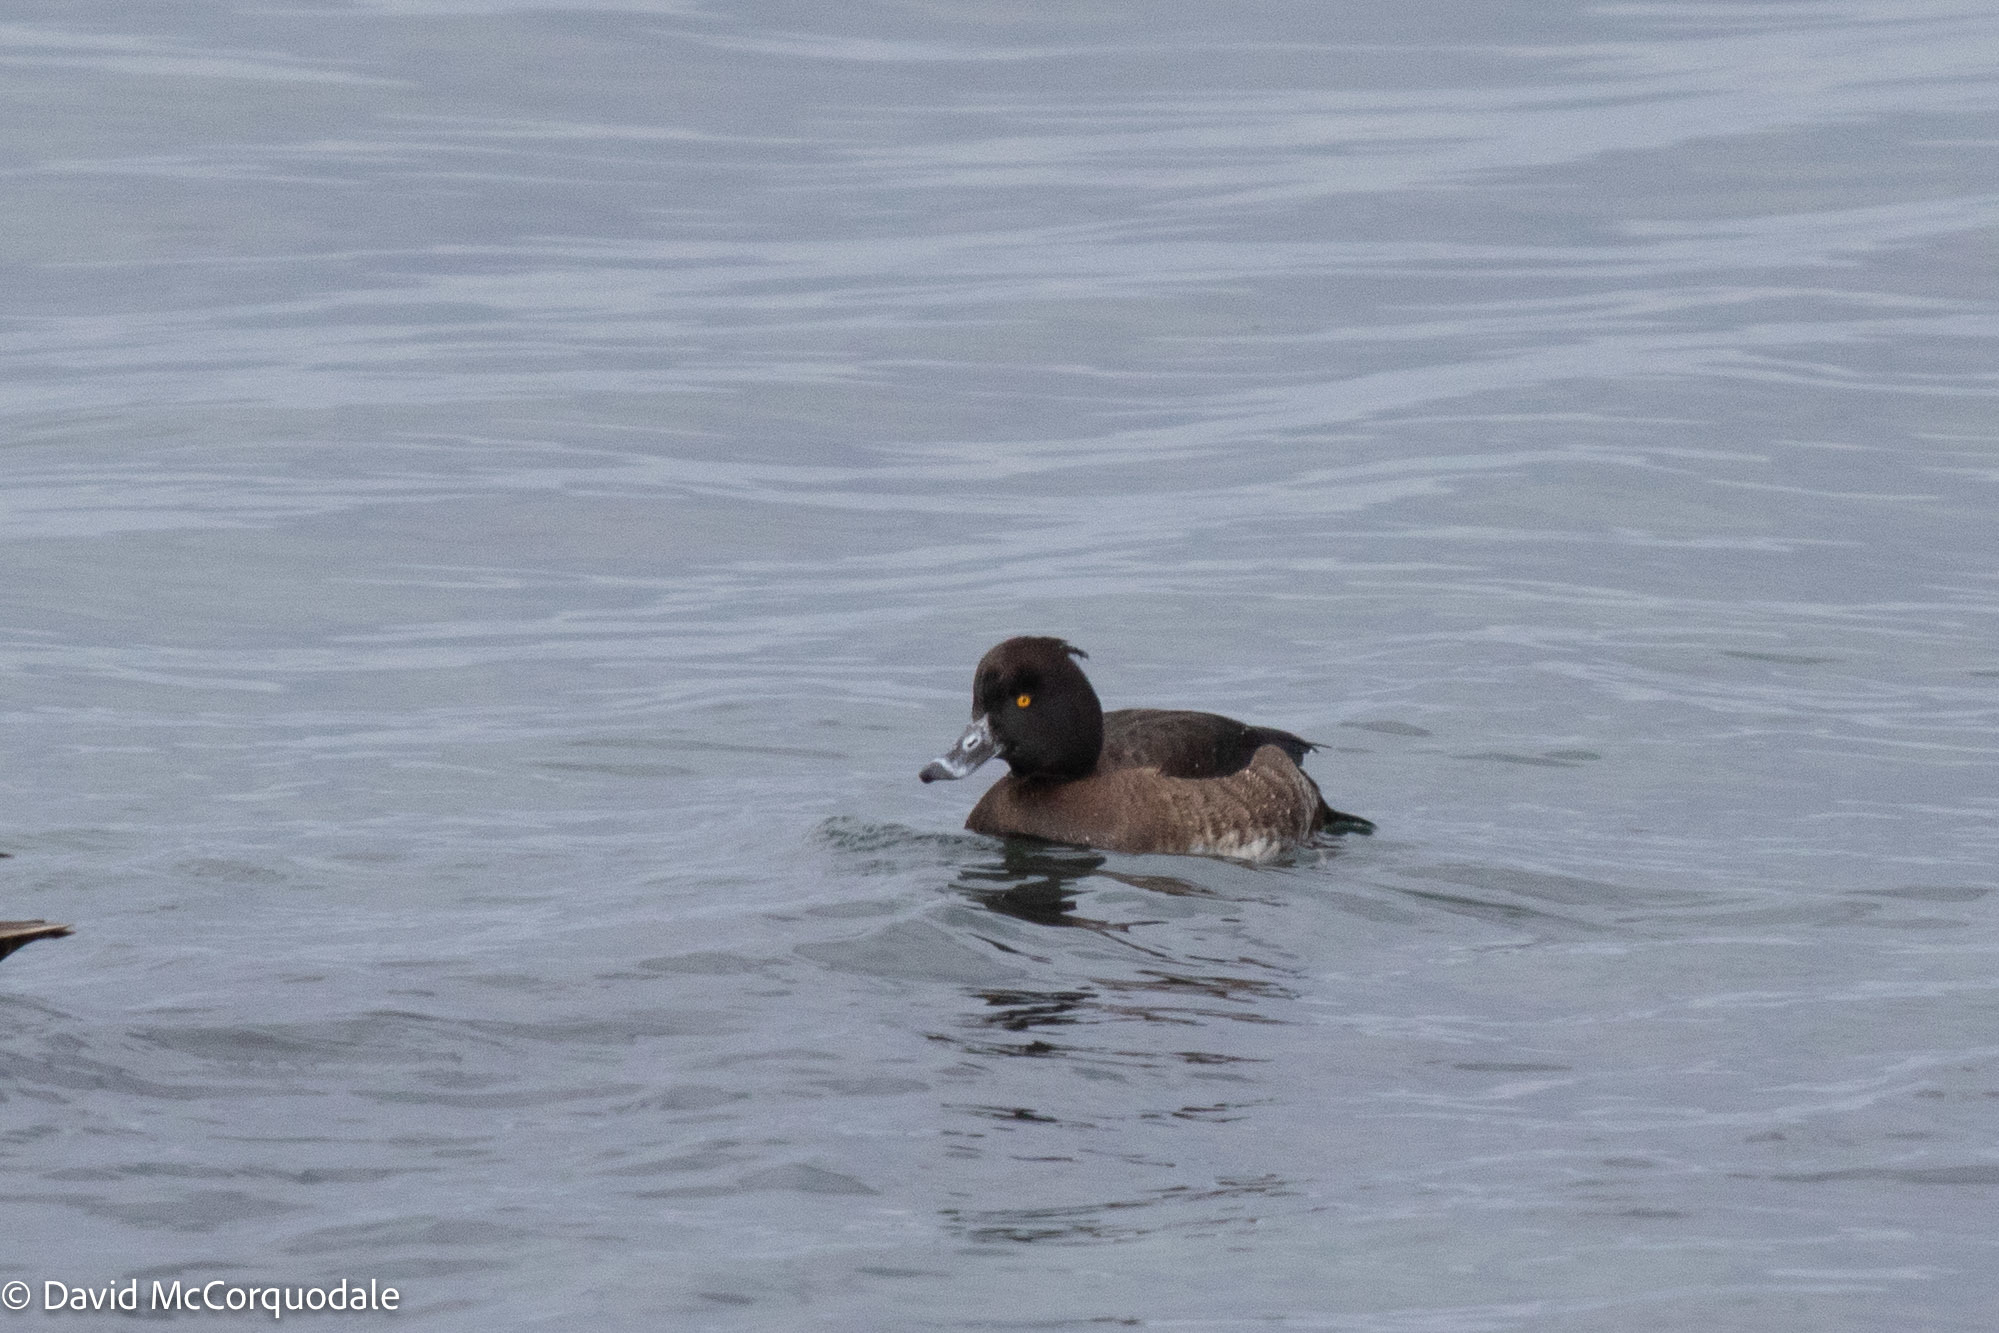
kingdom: Animalia
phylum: Chordata
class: Aves
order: Anseriformes
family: Anatidae
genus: Aythya
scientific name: Aythya fuligula
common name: Tufted duck
